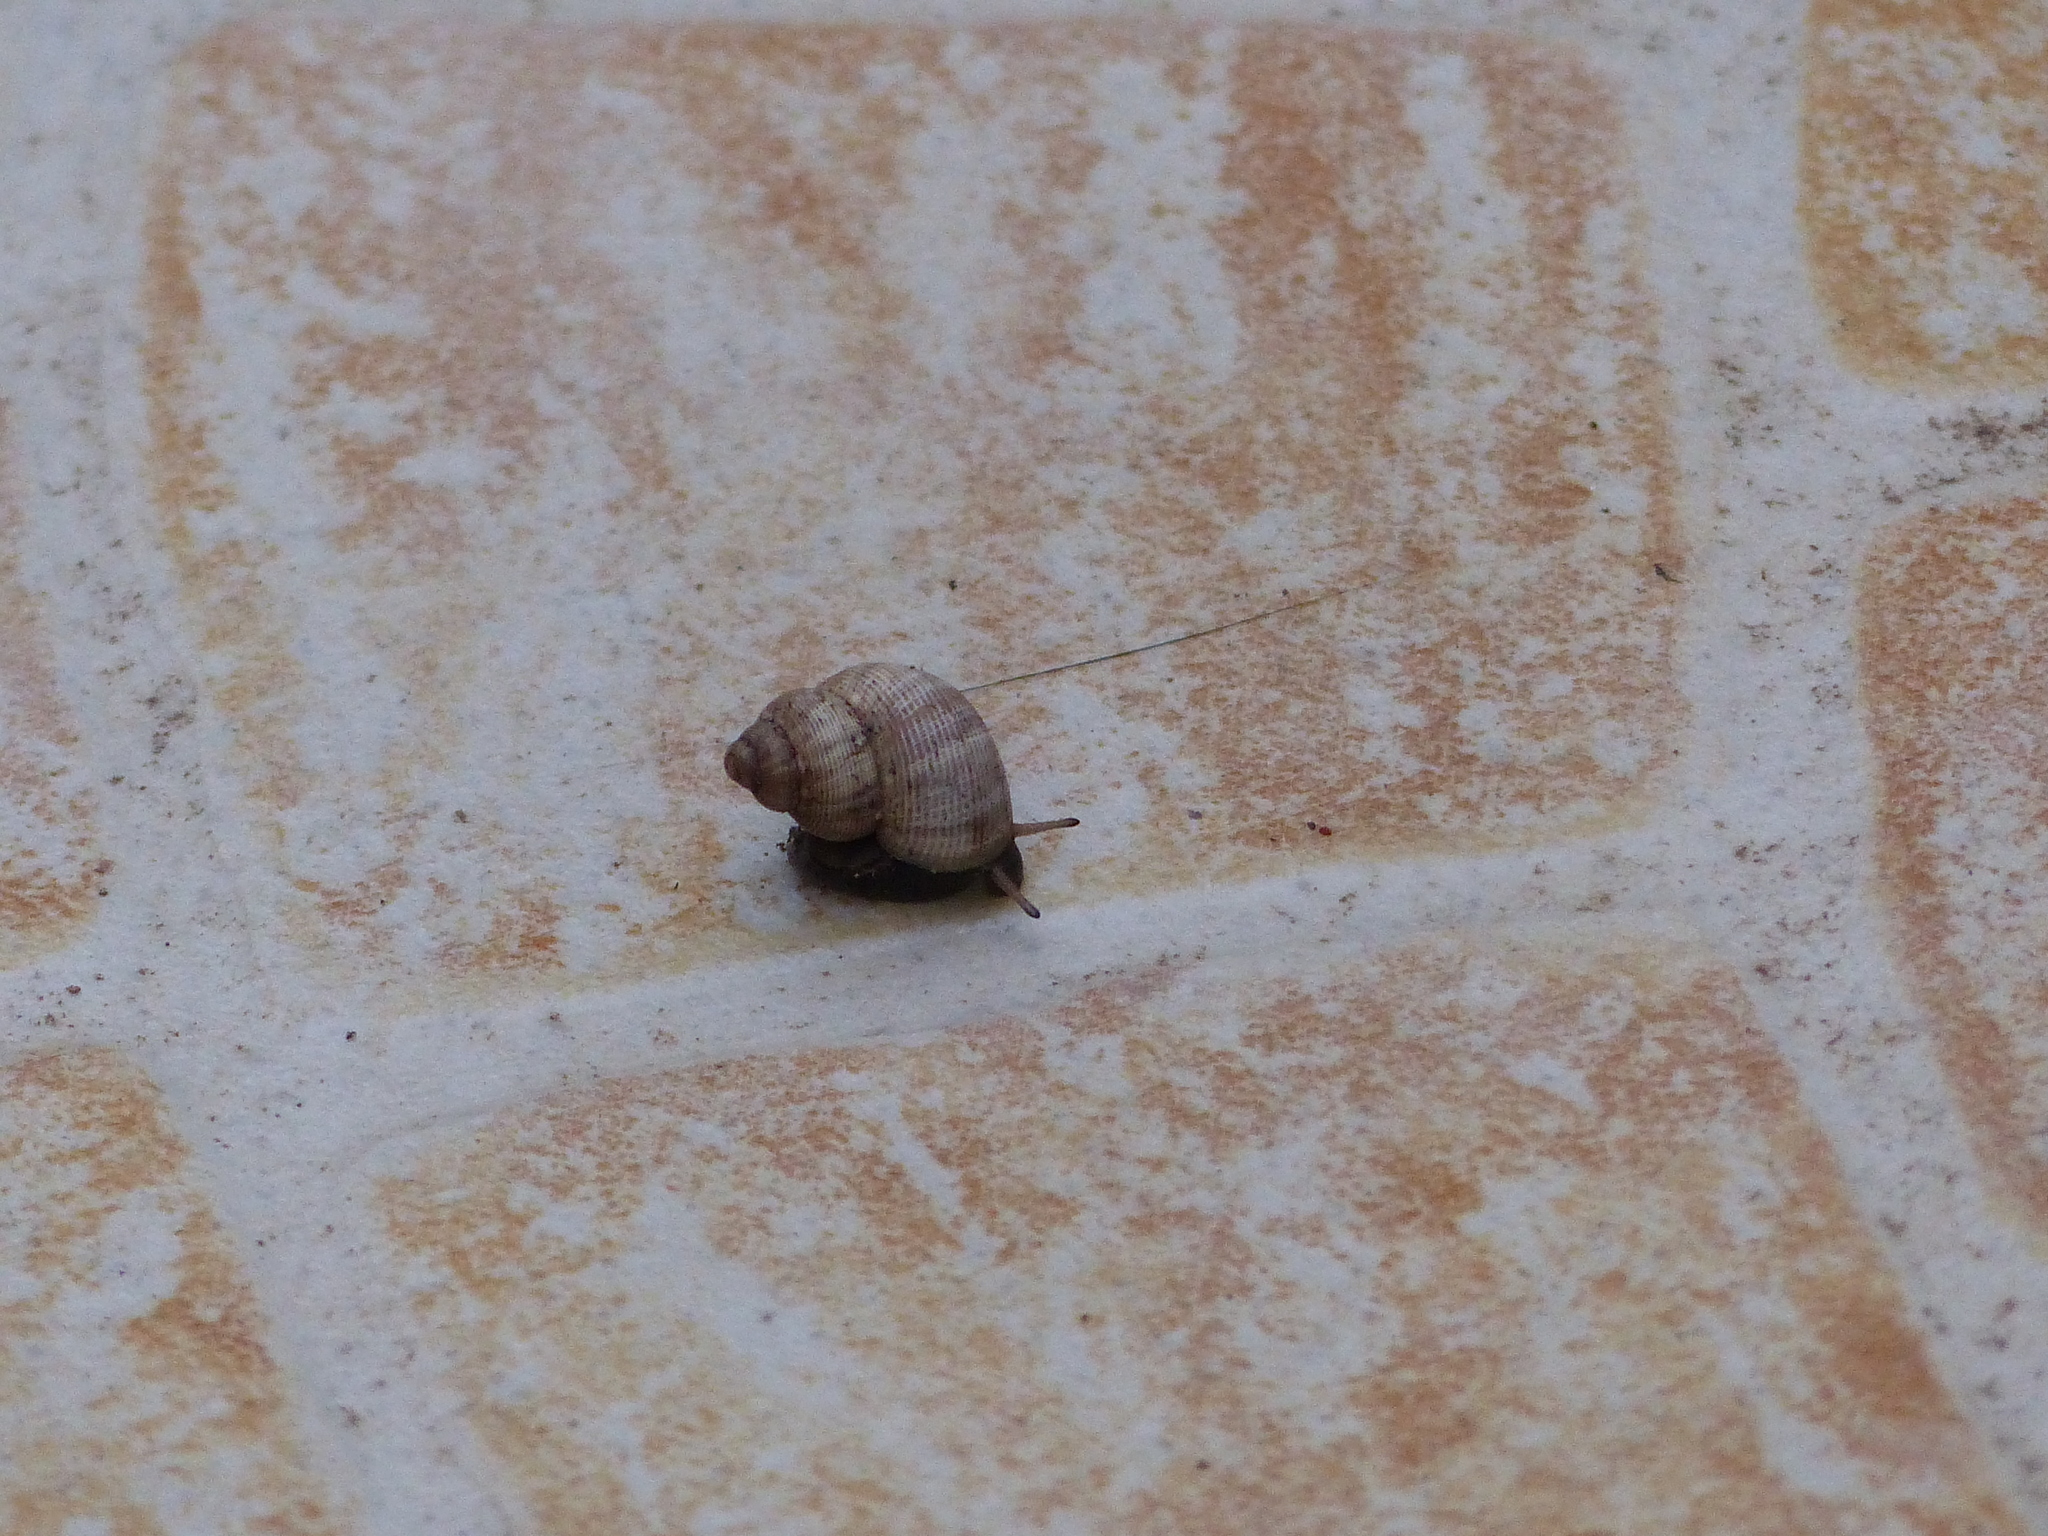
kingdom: Animalia
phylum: Mollusca
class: Gastropoda
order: Littorinimorpha
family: Pomatiidae
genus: Pomatias
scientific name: Pomatias elegans
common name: Red-mouthed snail
